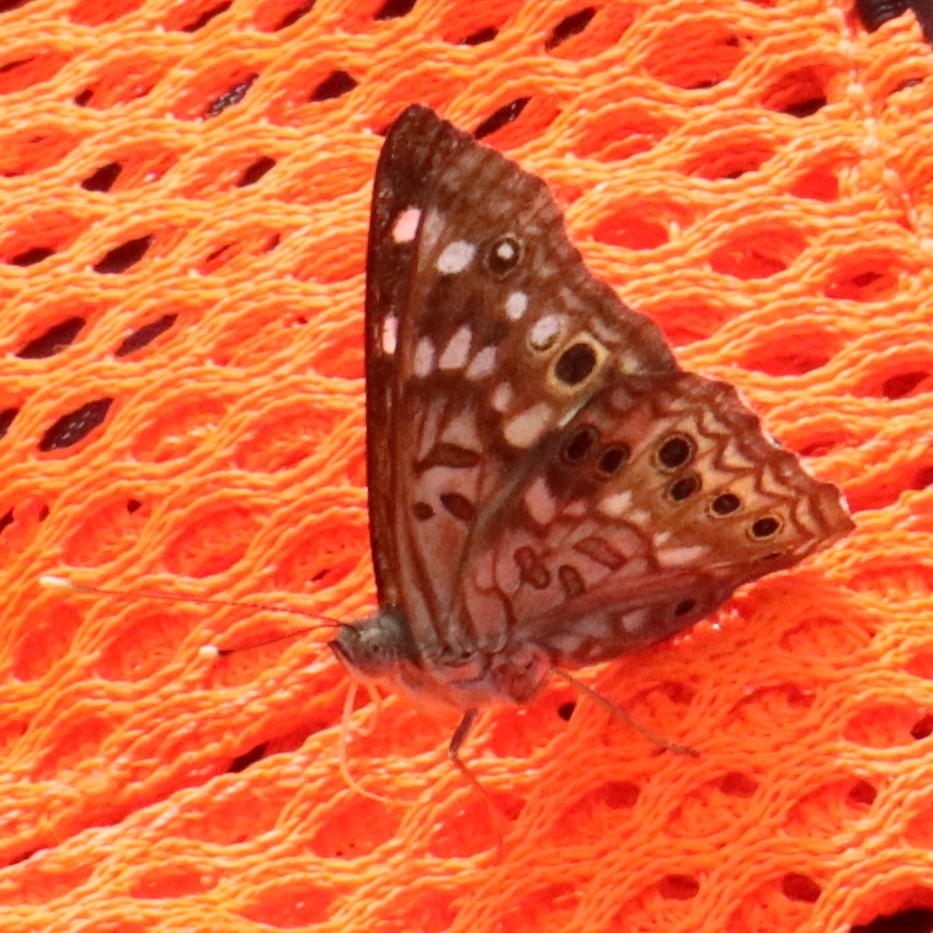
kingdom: Animalia
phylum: Arthropoda
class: Insecta
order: Lepidoptera
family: Nymphalidae
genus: Asterocampa
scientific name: Asterocampa celtis
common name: Hackberry emperor
